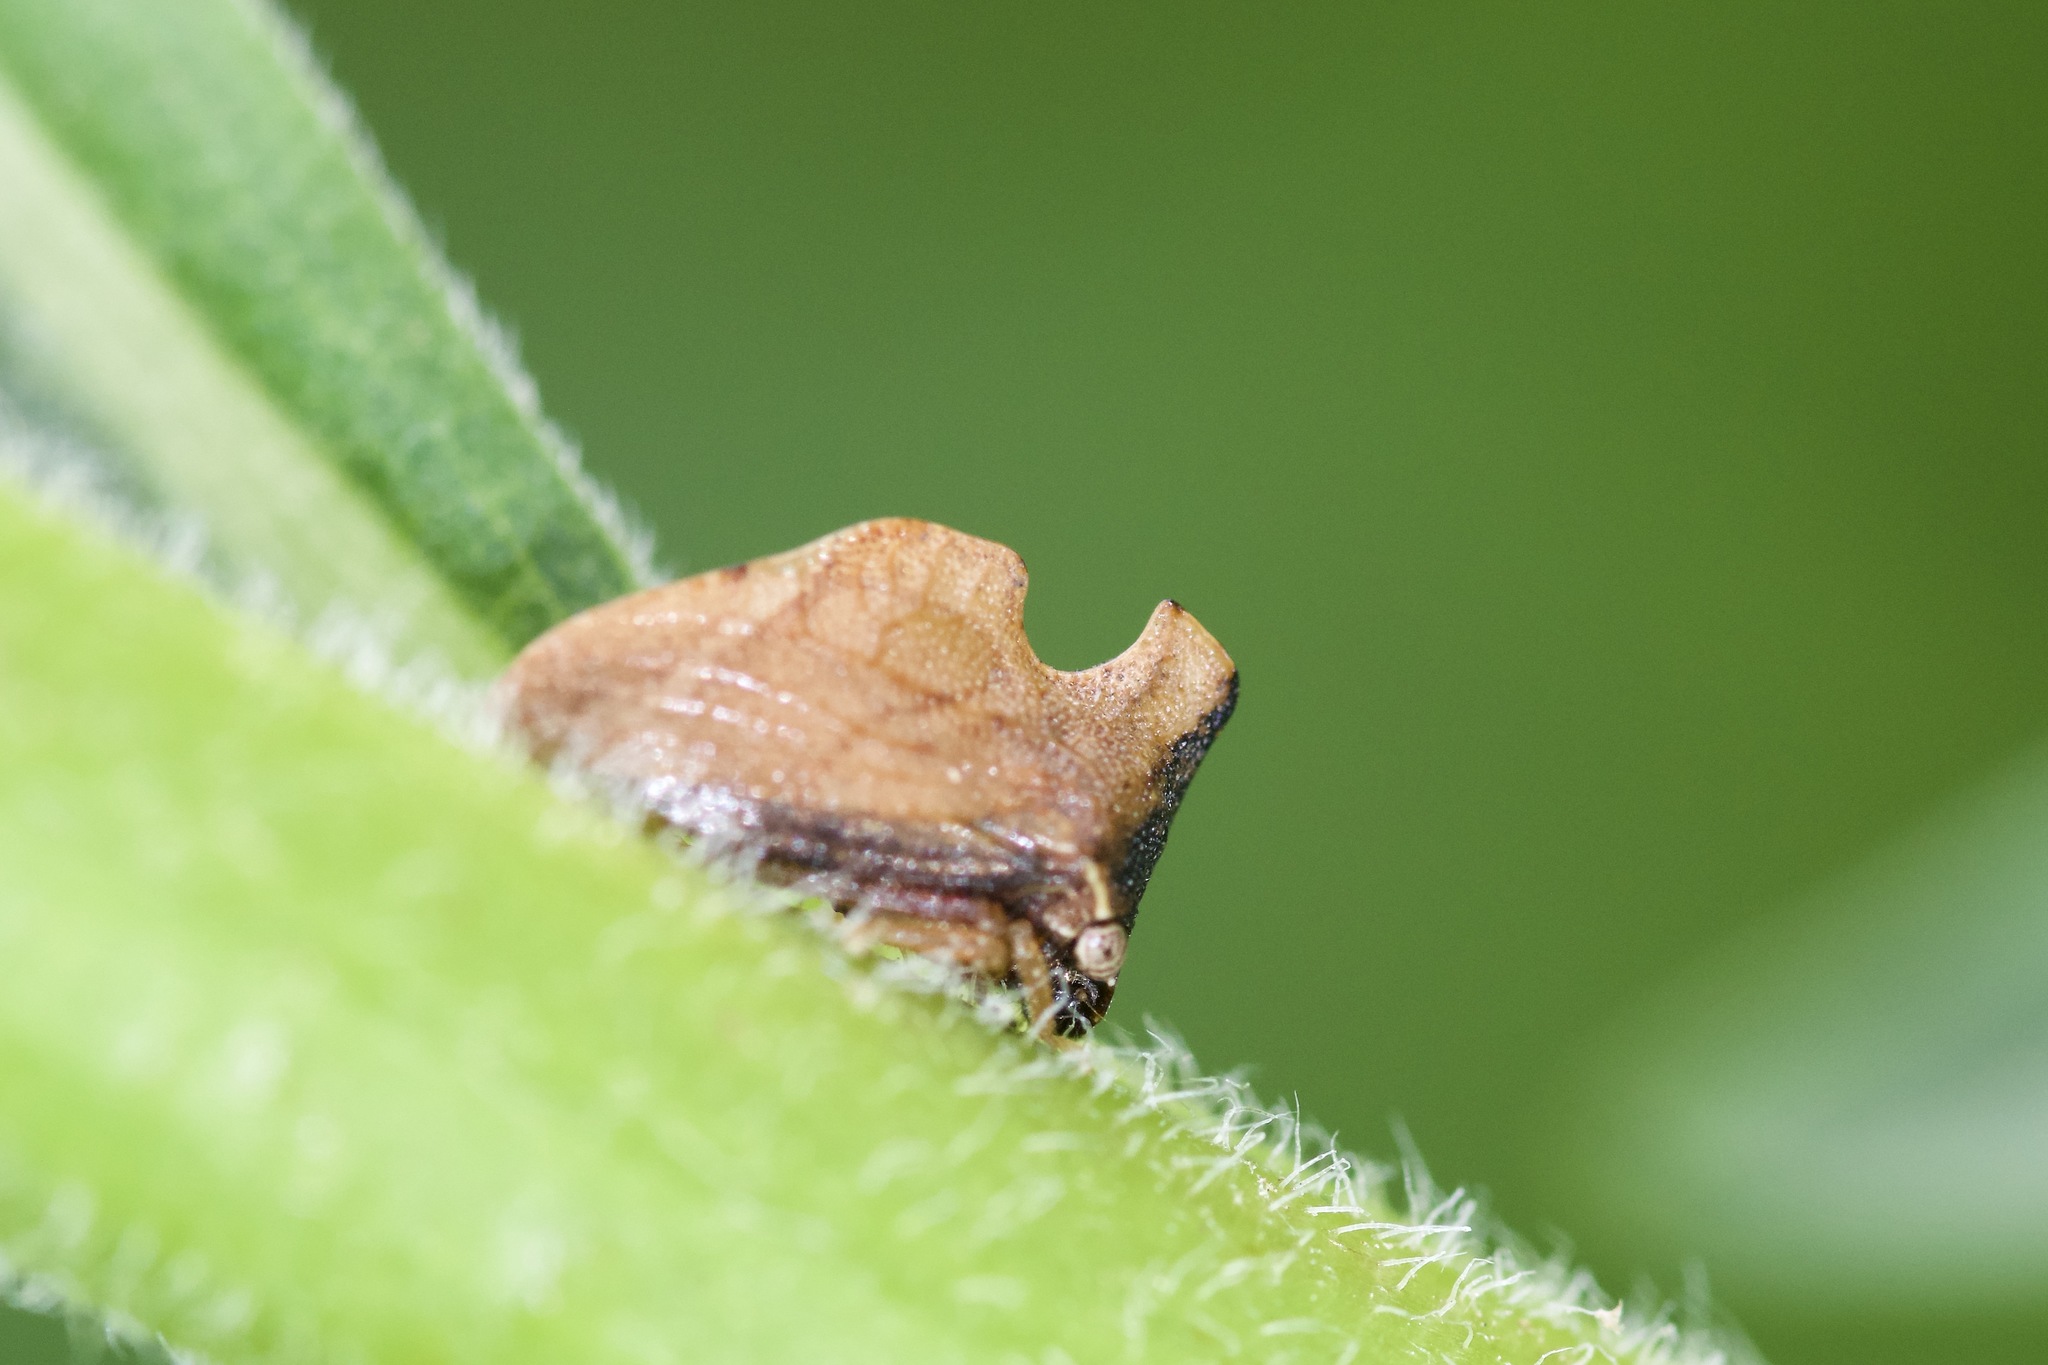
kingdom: Animalia
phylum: Arthropoda
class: Insecta
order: Hemiptera
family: Membracidae
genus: Entylia
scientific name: Entylia carinata
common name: Keeled treehopper
